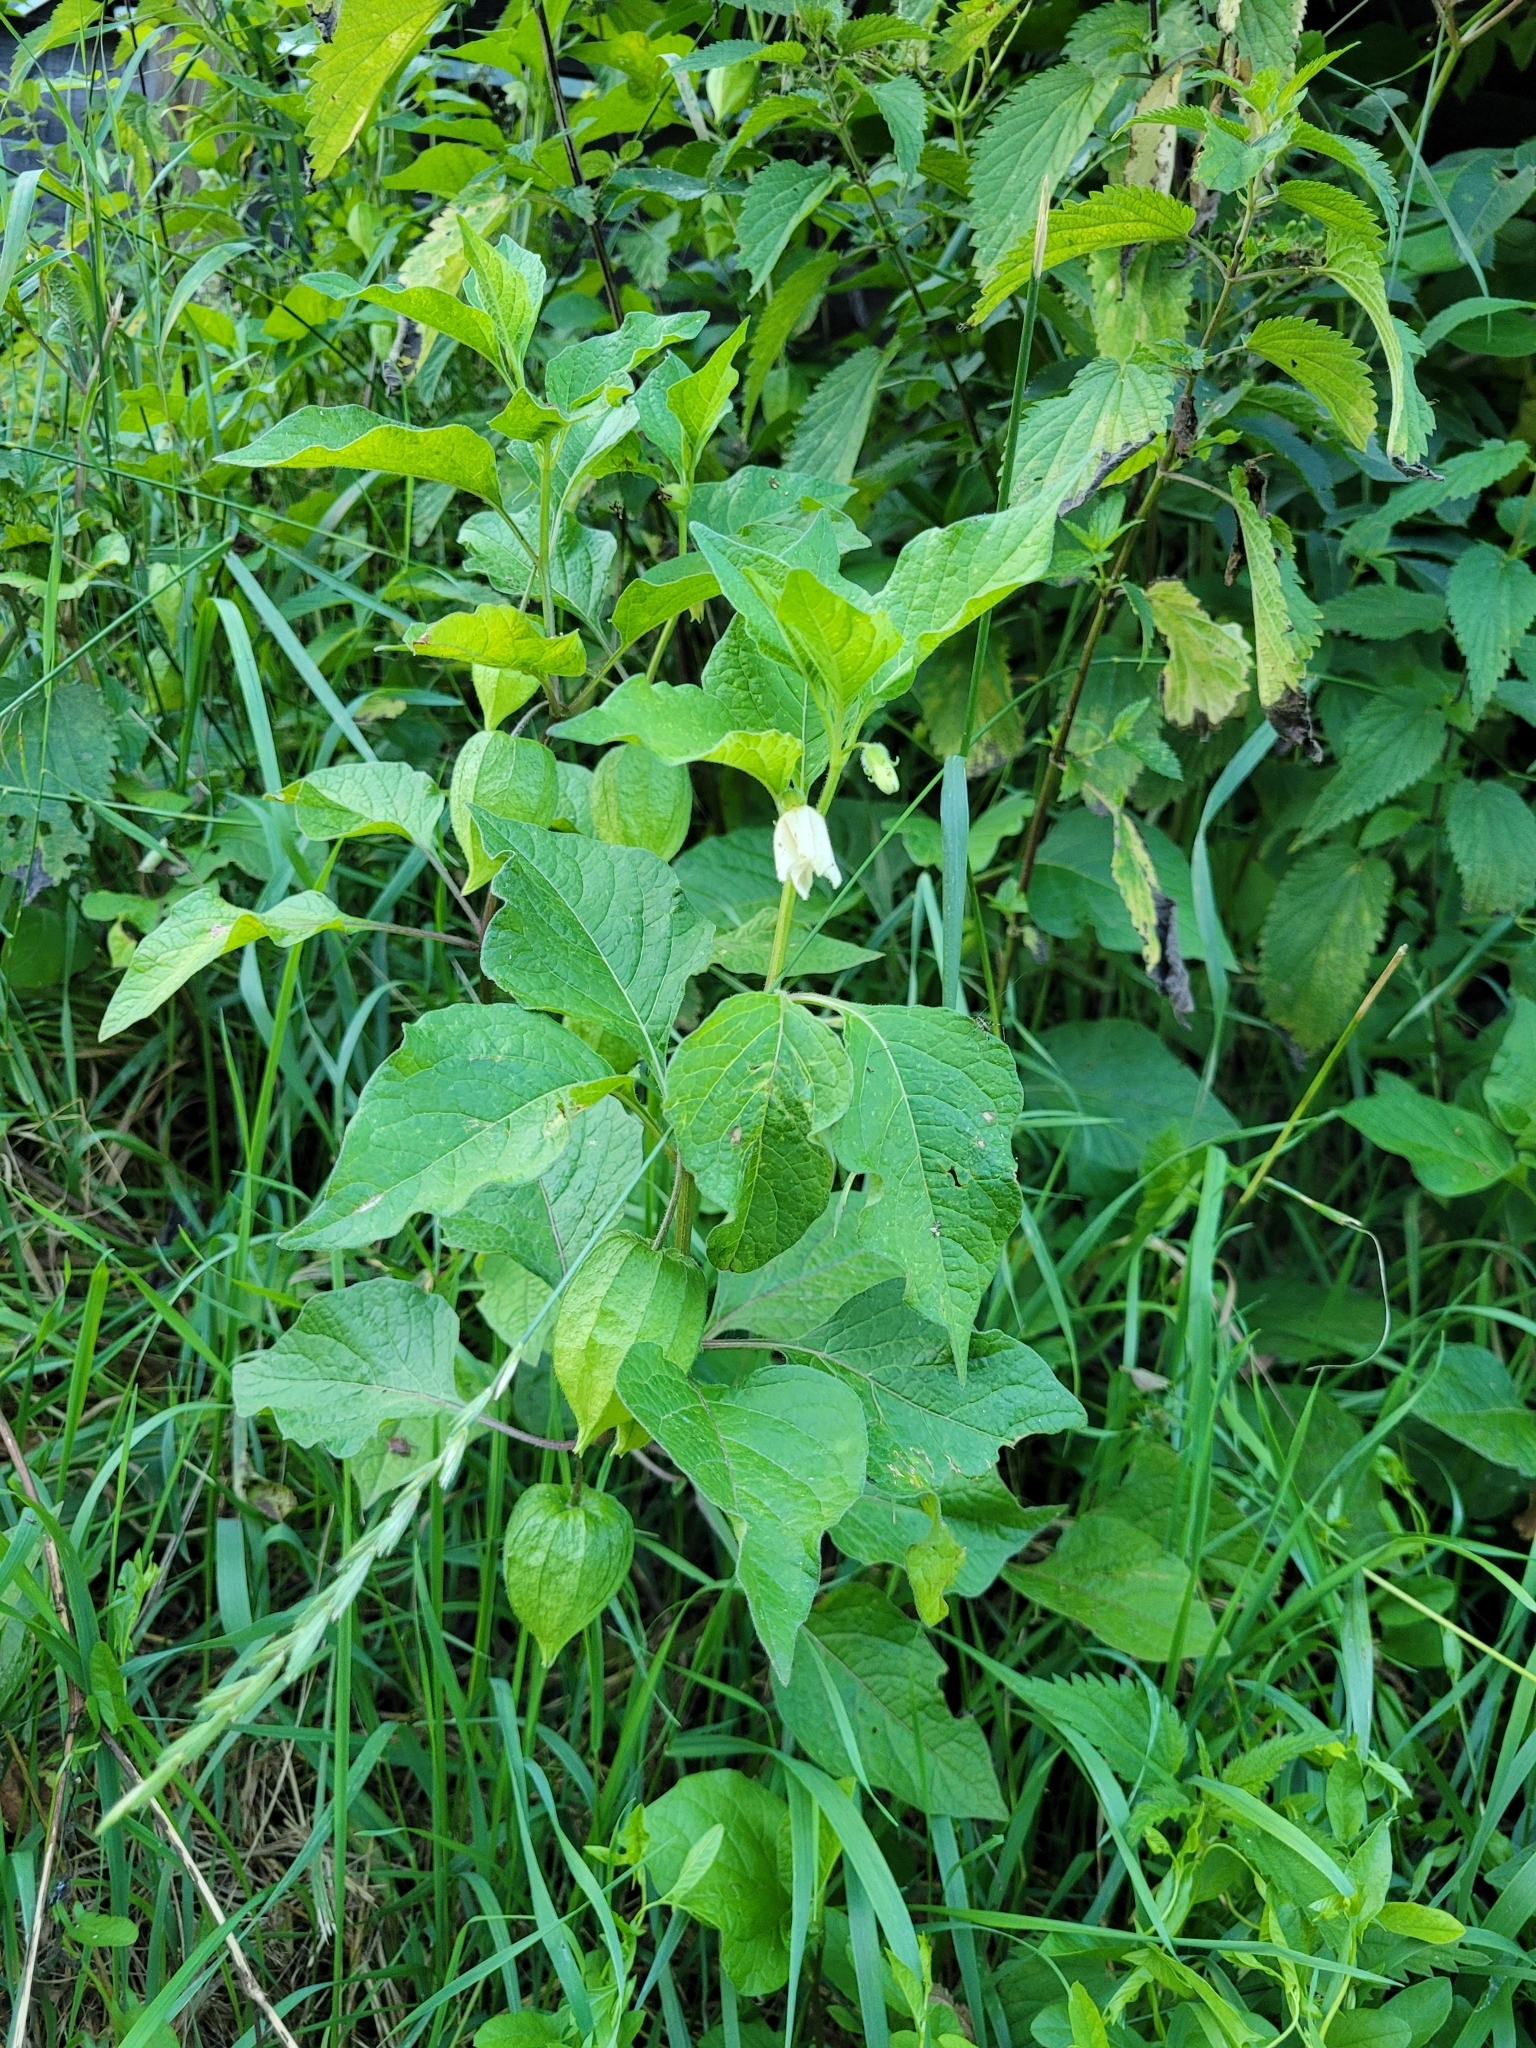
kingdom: Plantae
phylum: Tracheophyta
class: Magnoliopsida
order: Solanales
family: Solanaceae
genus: Alkekengi
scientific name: Alkekengi officinarum
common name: Japanese-lantern
